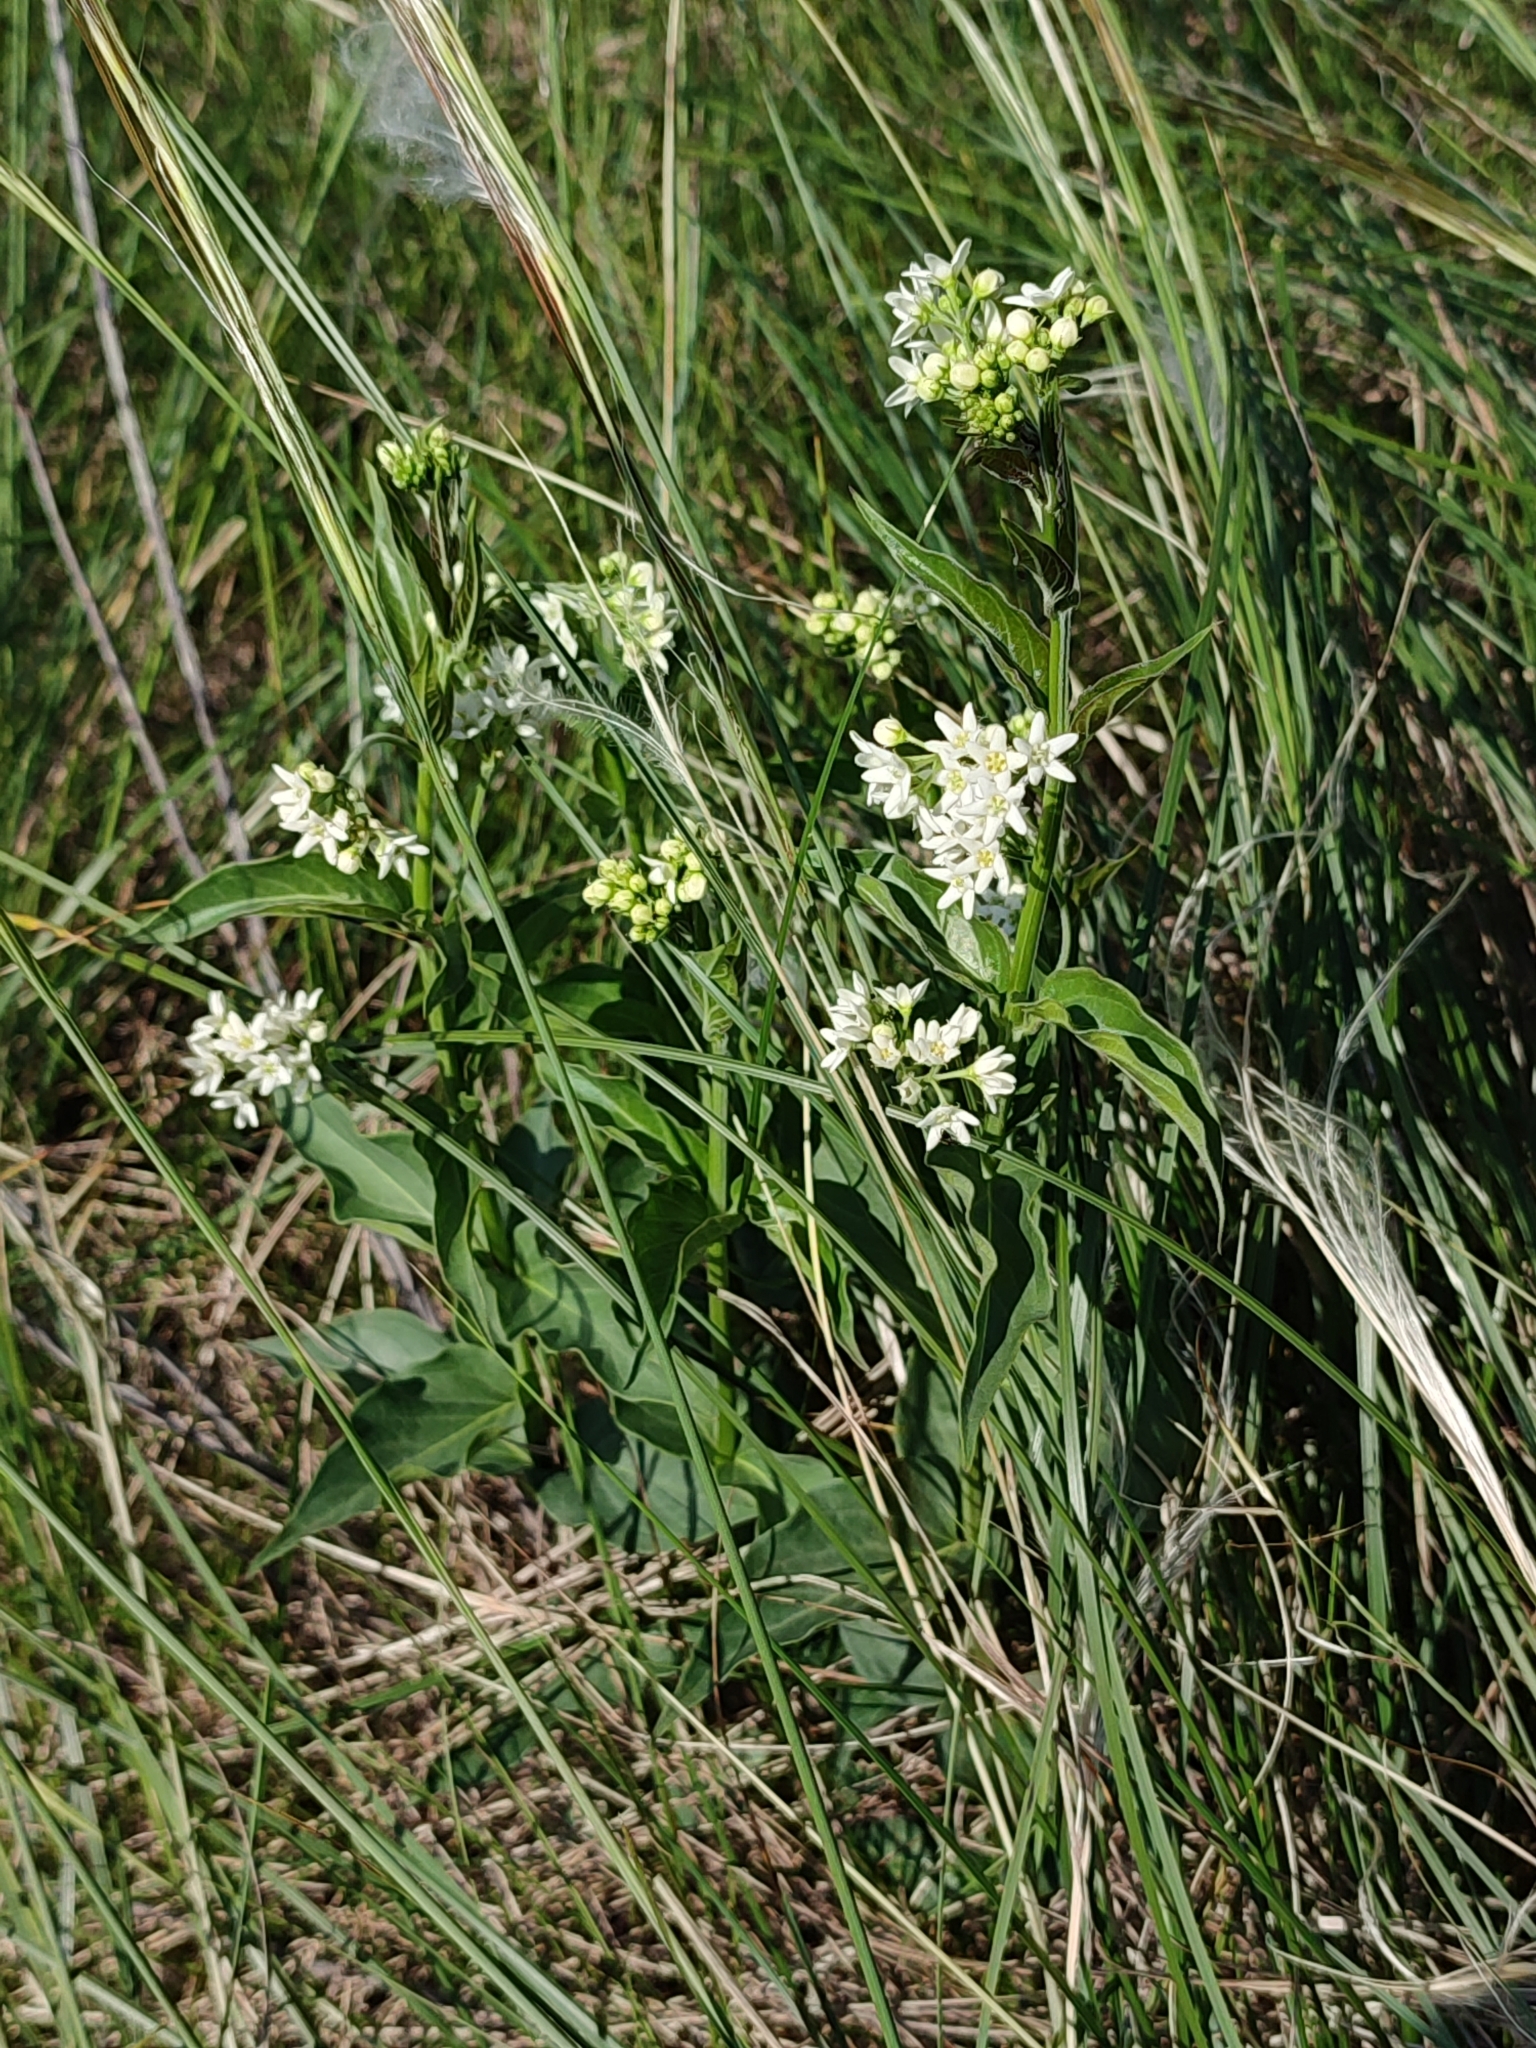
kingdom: Plantae
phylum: Tracheophyta
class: Magnoliopsida
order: Gentianales
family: Apocynaceae
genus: Vincetoxicum
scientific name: Vincetoxicum hirundinaria
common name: White swallowwort
